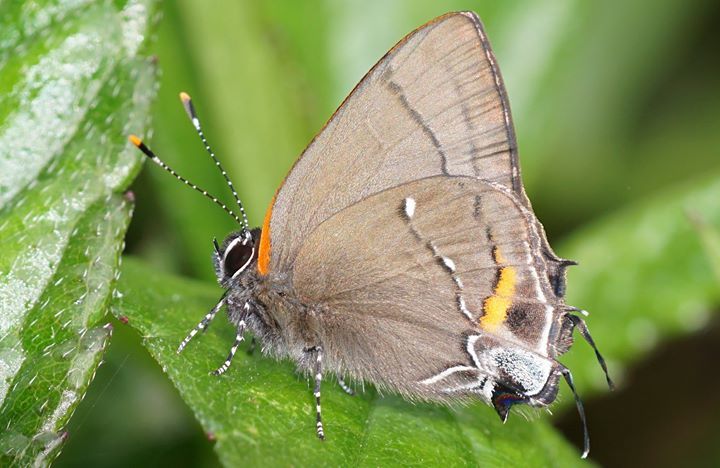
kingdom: Animalia
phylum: Arthropoda
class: Insecta
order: Lepidoptera
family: Lycaenidae
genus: Thecla
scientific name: Thecla angelia
